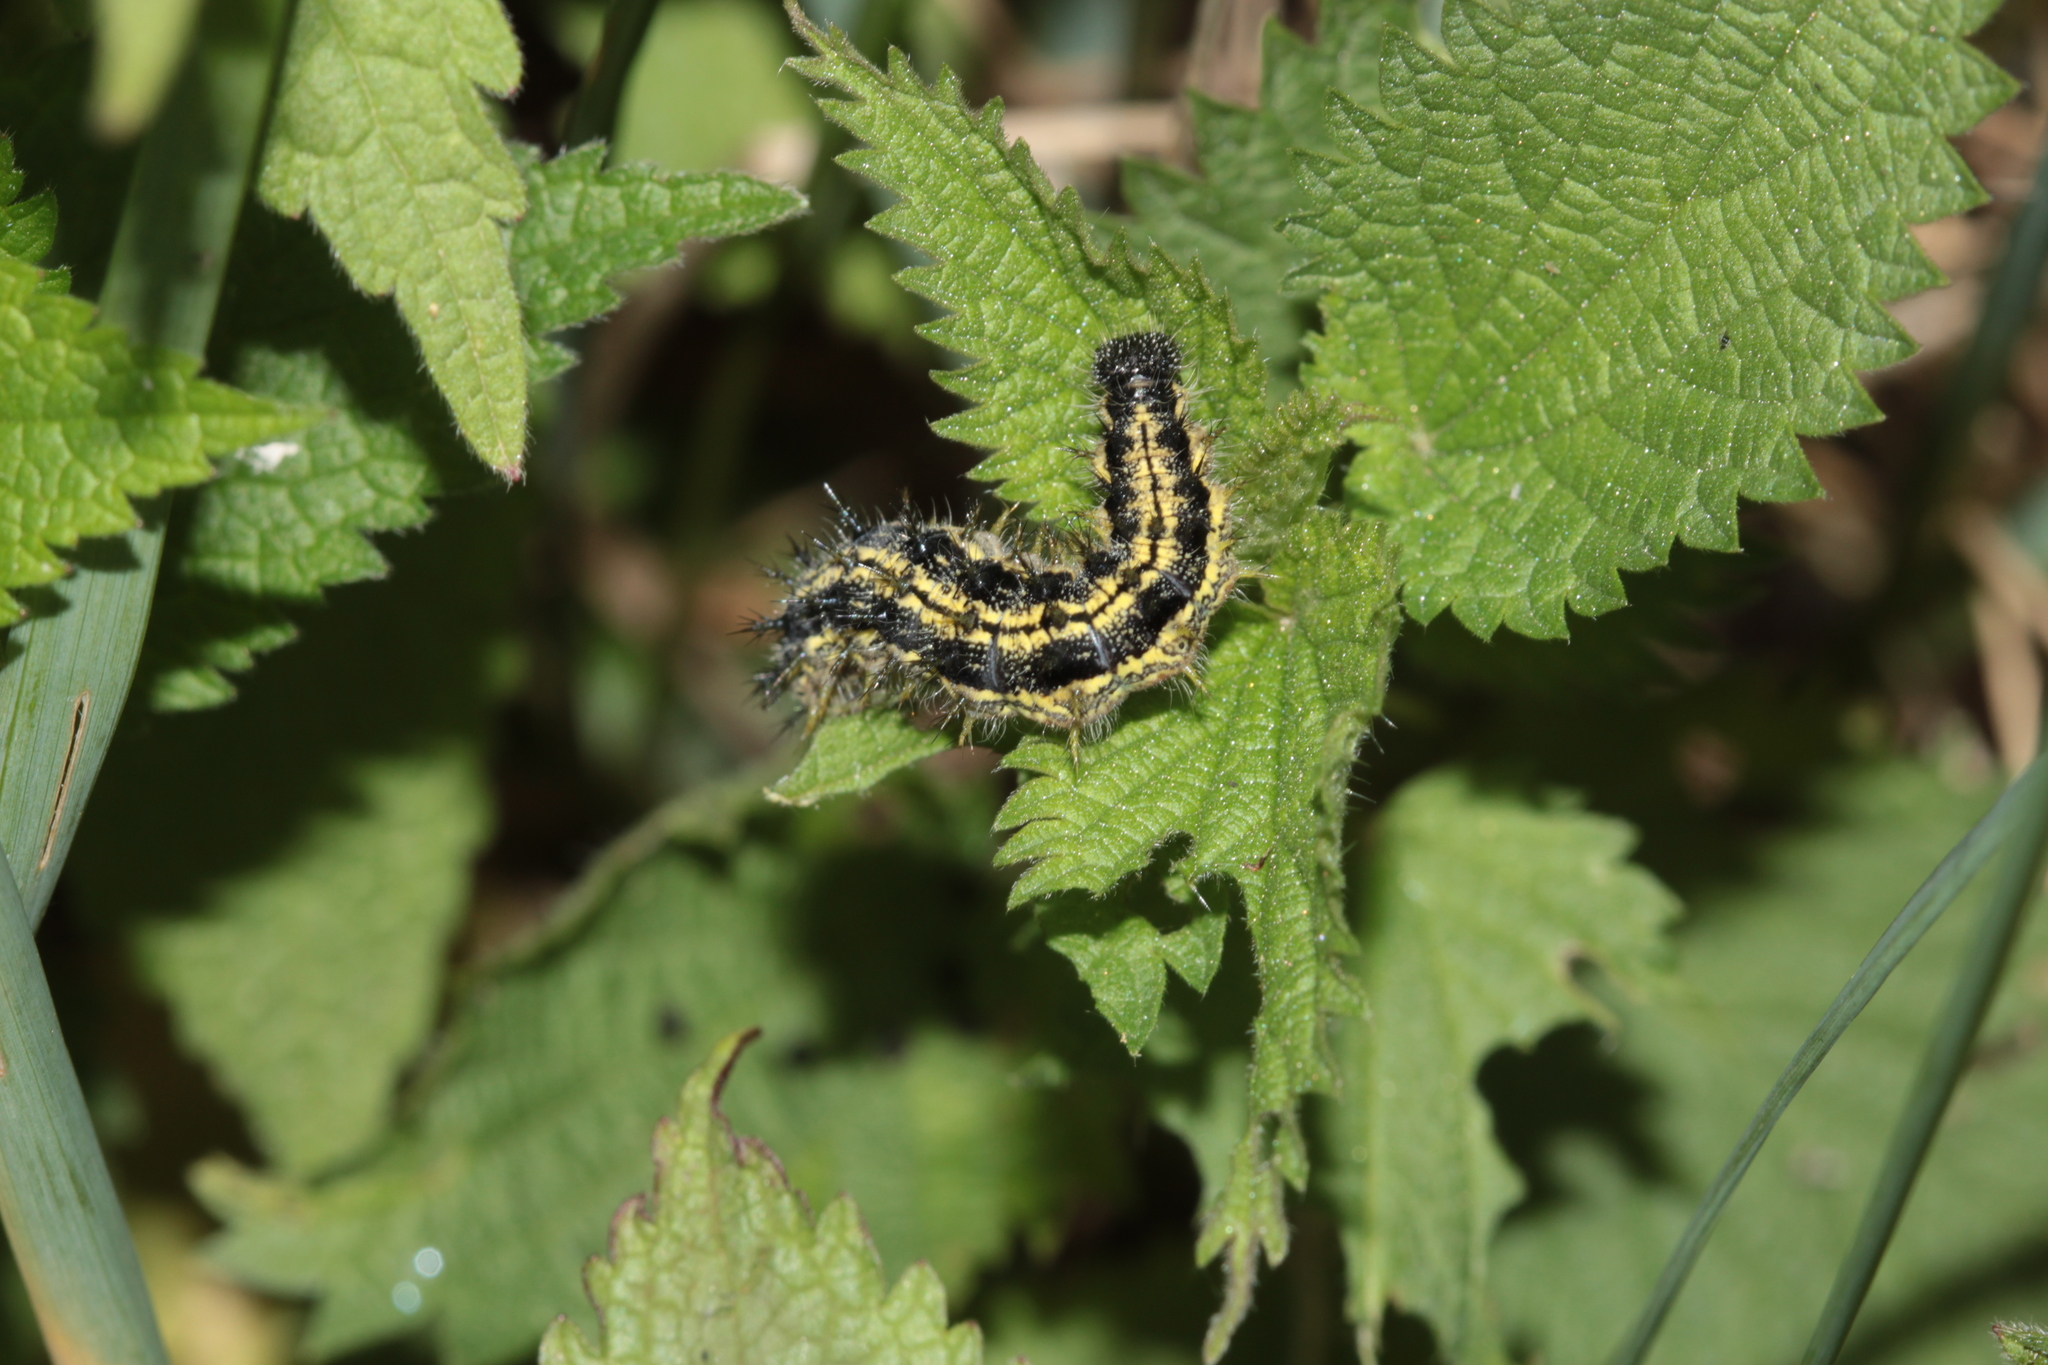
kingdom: Animalia
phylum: Arthropoda
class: Insecta
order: Lepidoptera
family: Nymphalidae
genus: Aglais
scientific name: Aglais urticae
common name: Small tortoiseshell
